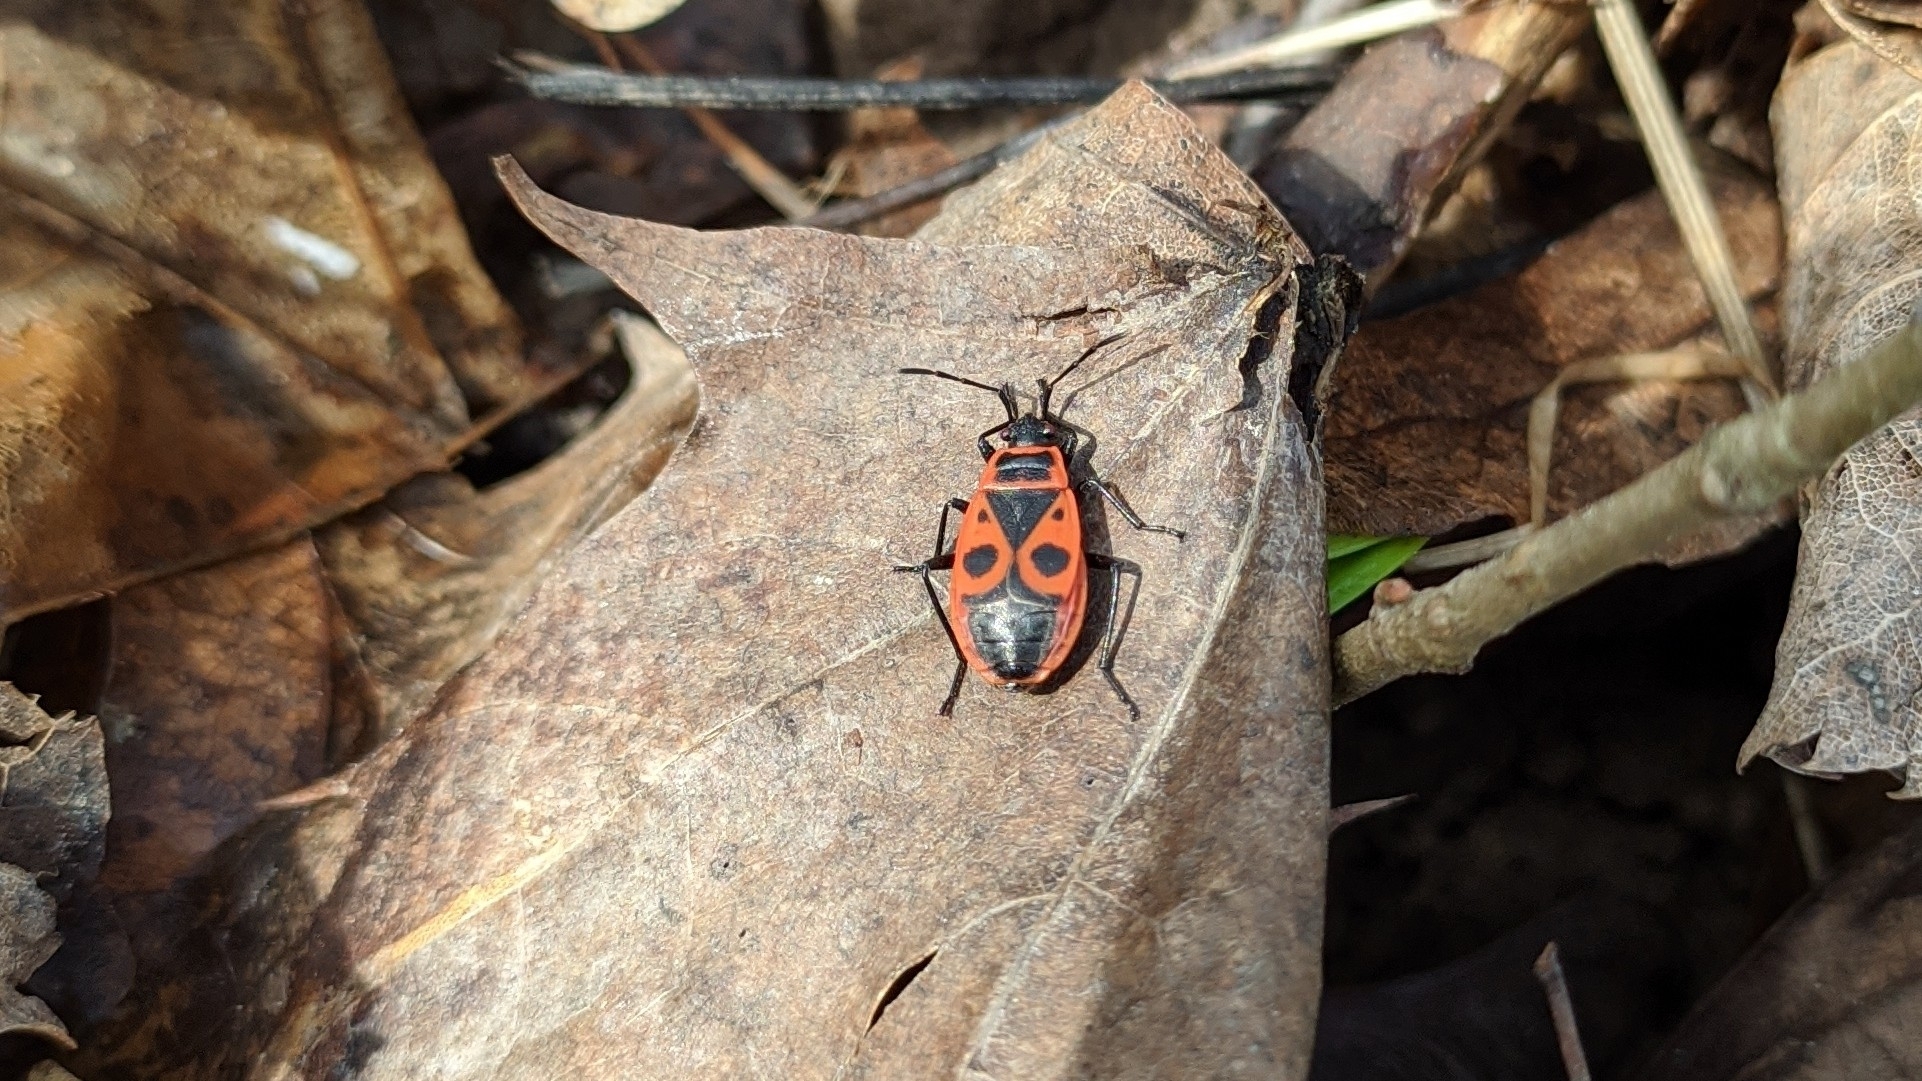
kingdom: Animalia
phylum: Arthropoda
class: Insecta
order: Hemiptera
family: Pyrrhocoridae
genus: Pyrrhocoris
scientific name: Pyrrhocoris apterus
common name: Firebug
